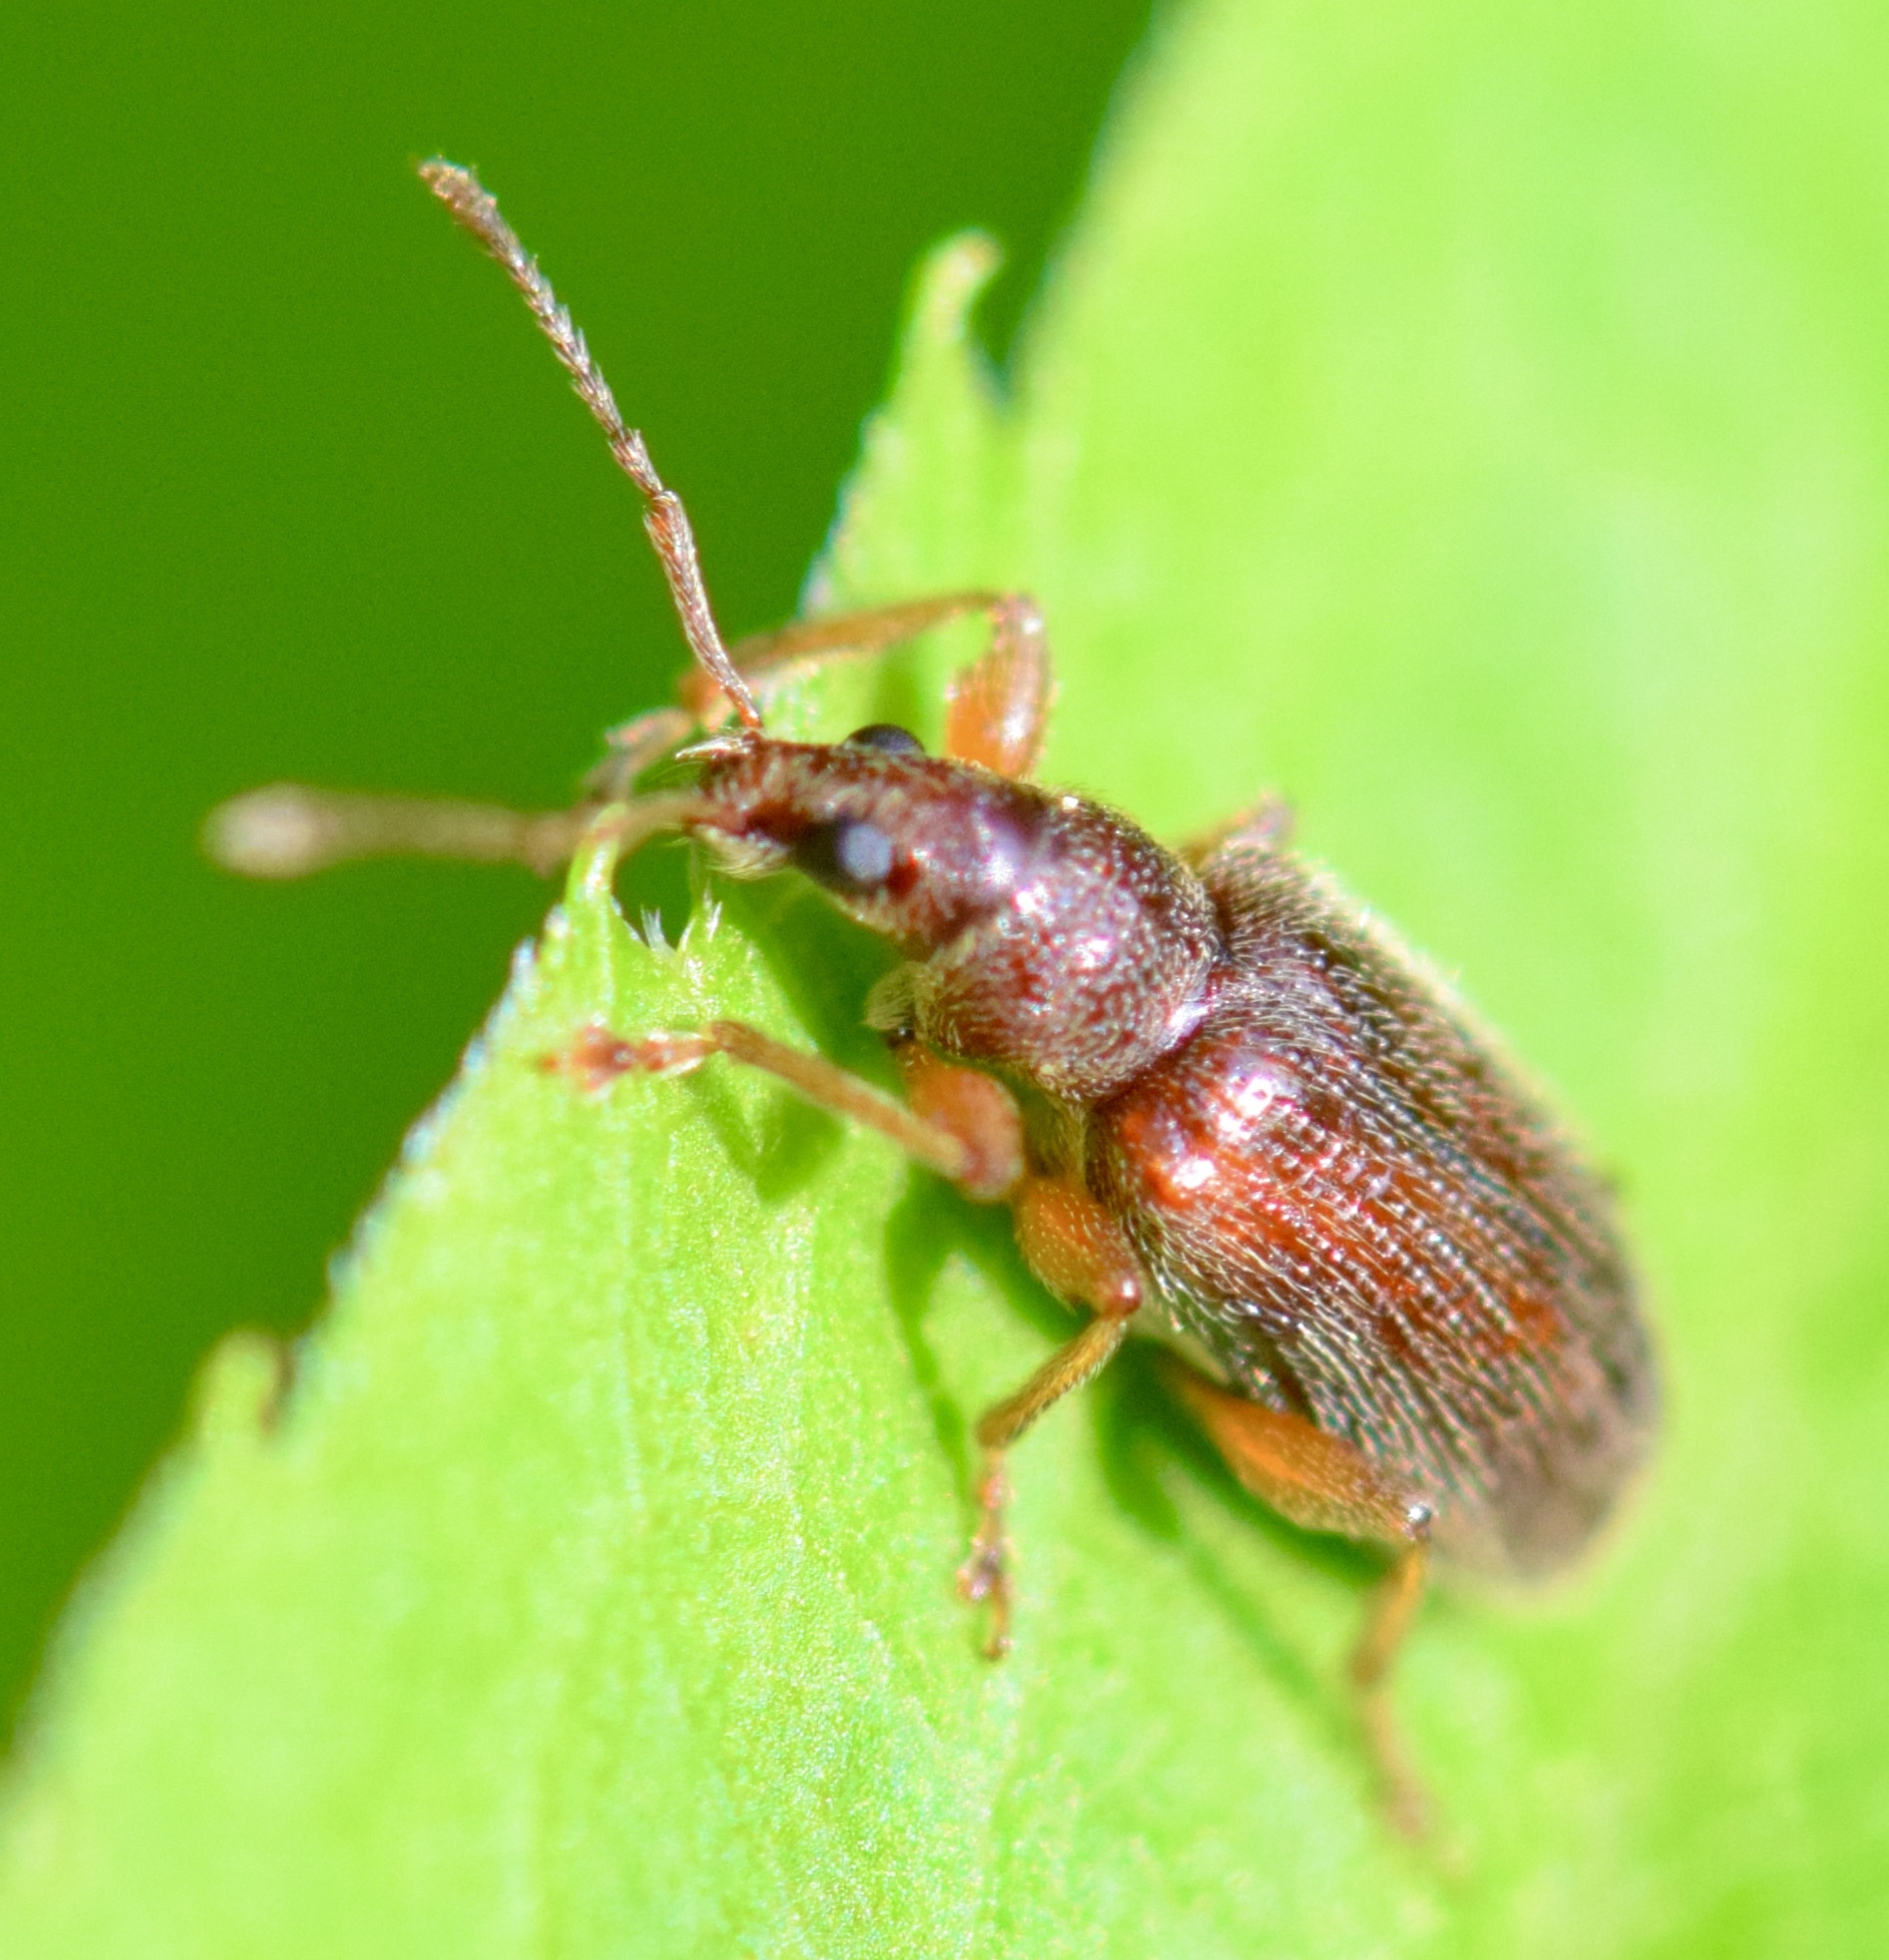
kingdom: Animalia
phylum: Arthropoda
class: Insecta
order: Coleoptera
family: Curculionidae
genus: Phyllobius
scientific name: Phyllobius oblongus
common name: Brown leaf weevil
